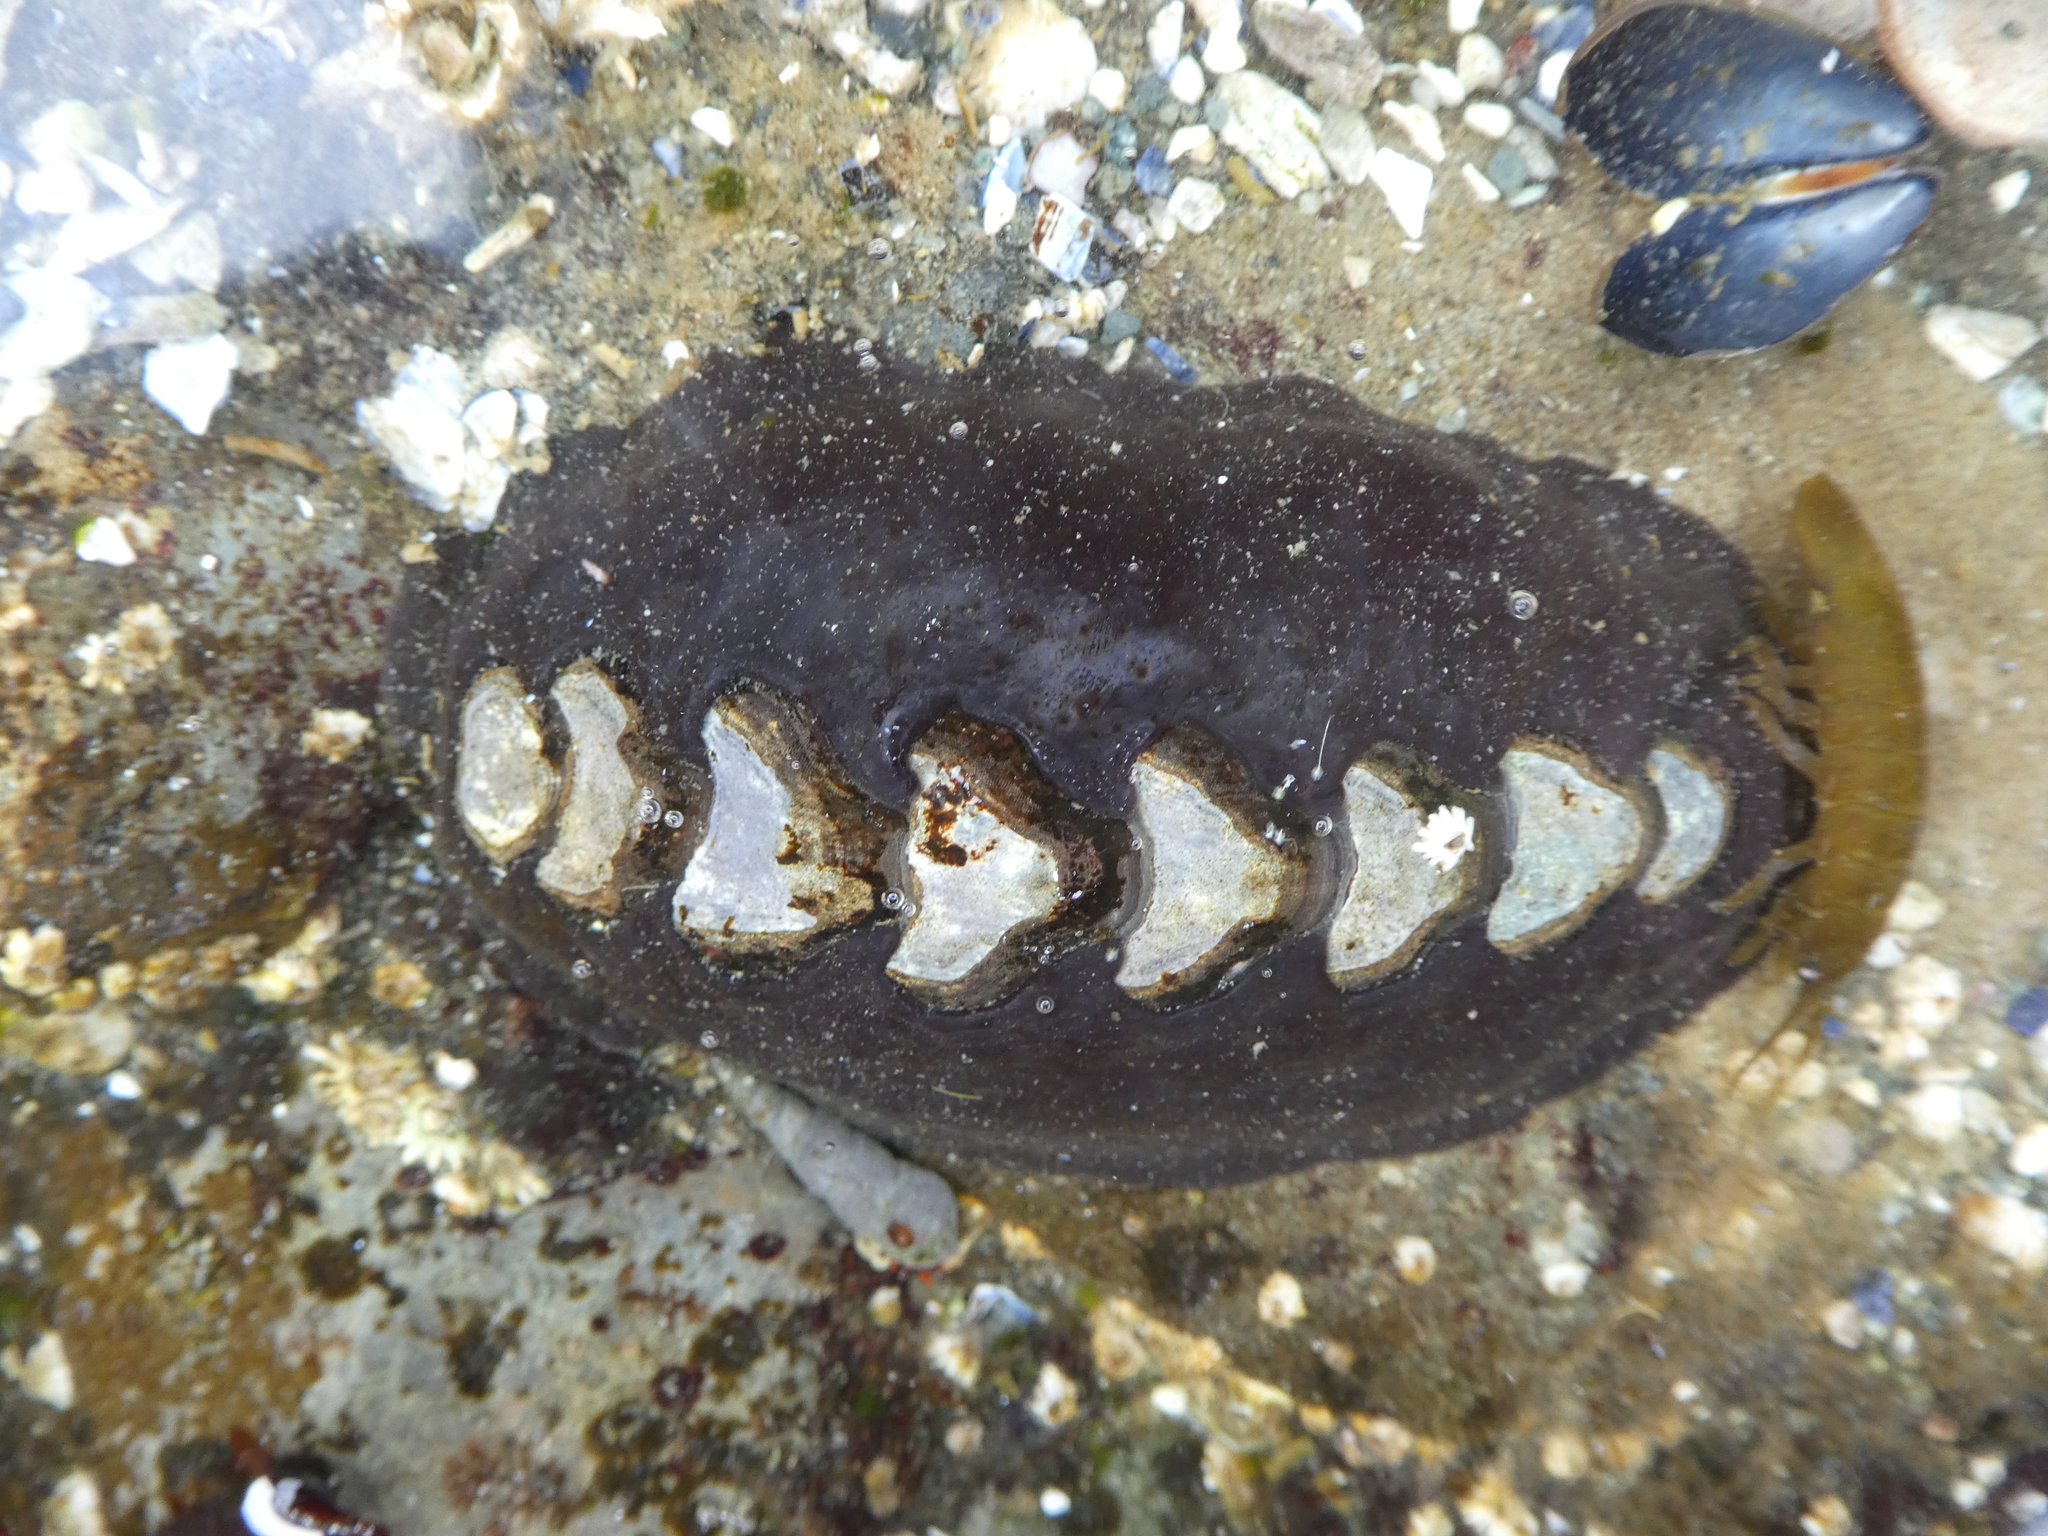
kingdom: Animalia
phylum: Mollusca
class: Polyplacophora
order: Chitonida
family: Mopaliidae
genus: Katharina
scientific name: Katharina tunicata
